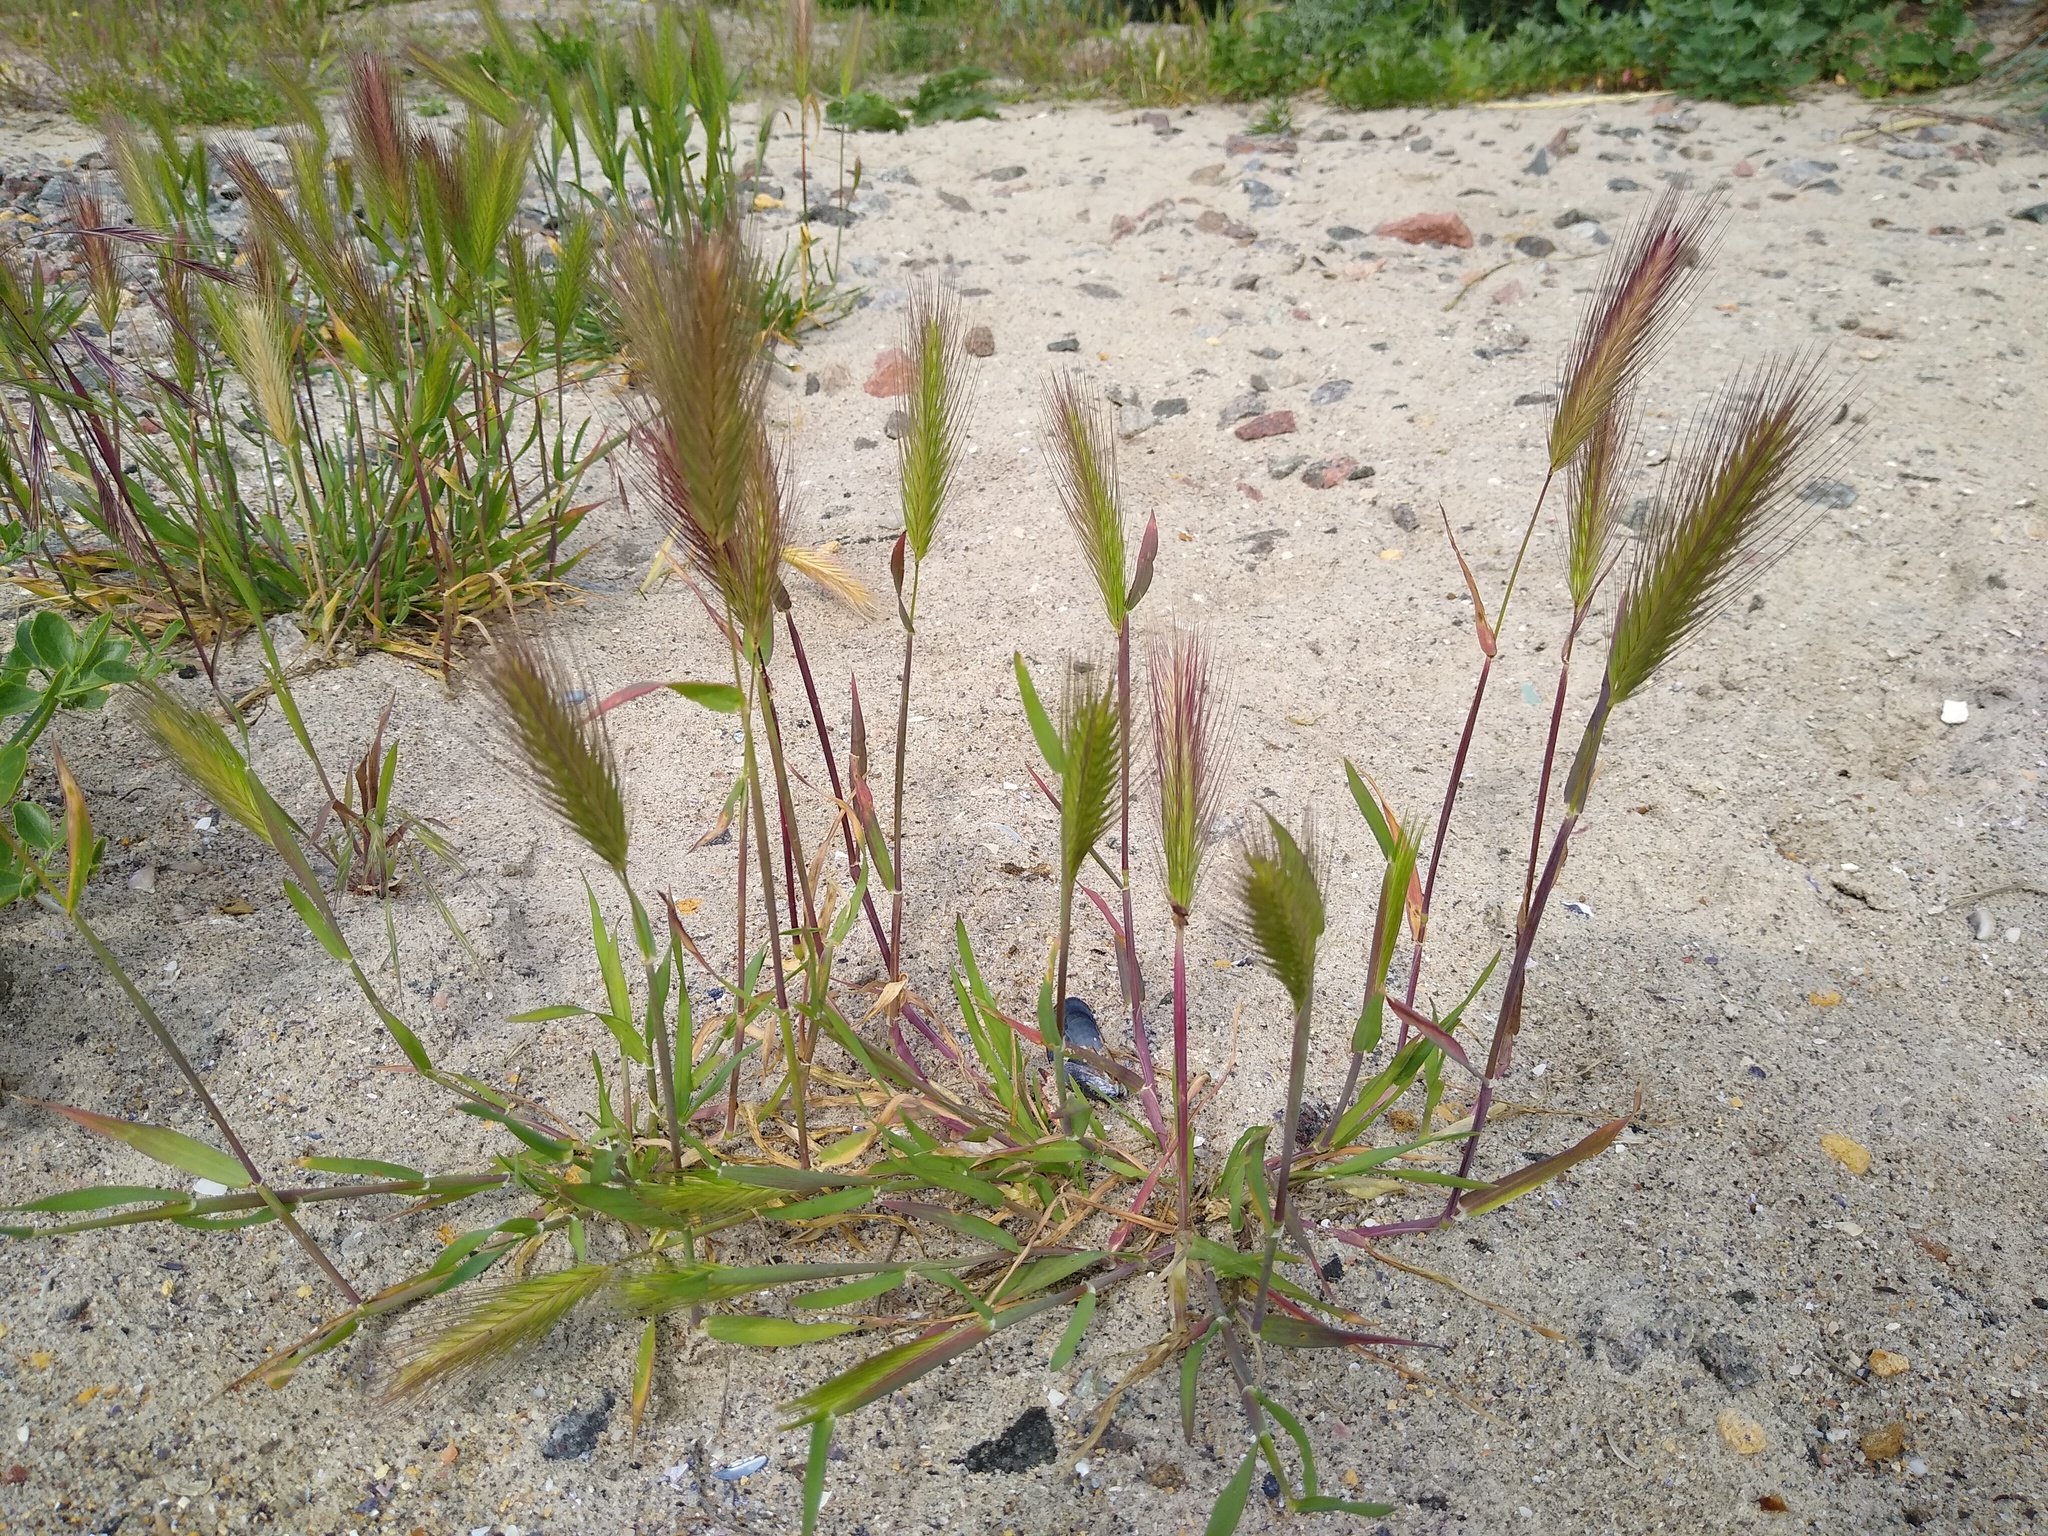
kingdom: Plantae
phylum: Tracheophyta
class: Liliopsida
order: Poales
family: Poaceae
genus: Hordeum
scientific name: Hordeum murinum
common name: Wall barley
